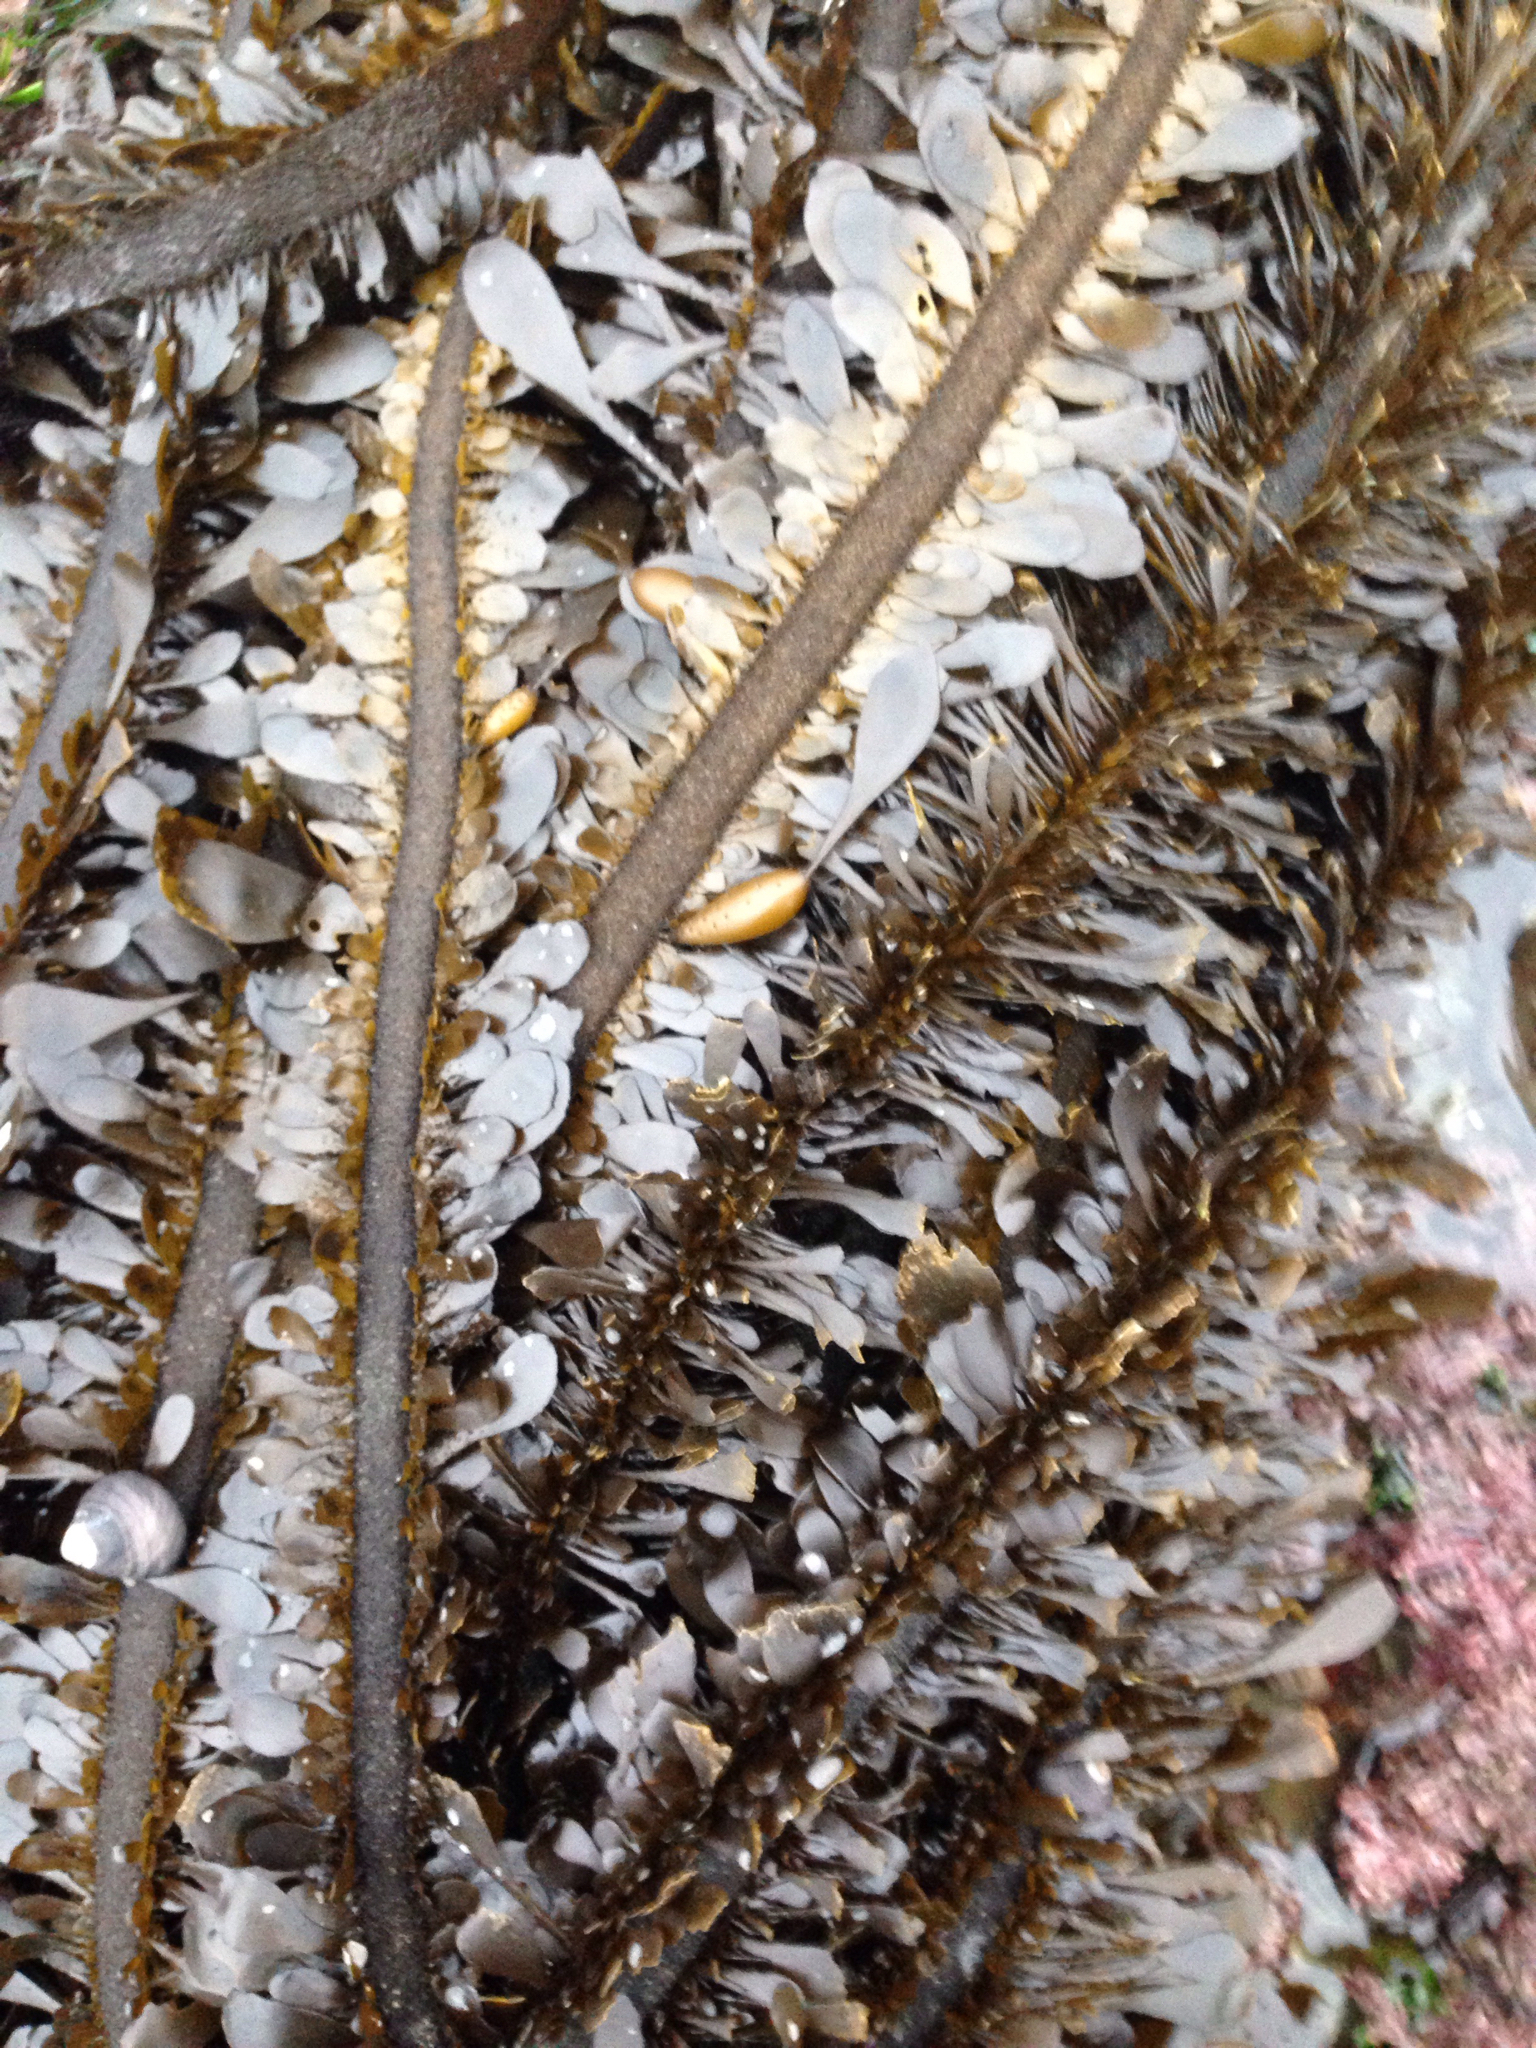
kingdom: Chromista
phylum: Ochrophyta
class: Phaeophyceae
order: Laminariales
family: Lessoniaceae
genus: Egregia
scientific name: Egregia menziesii
